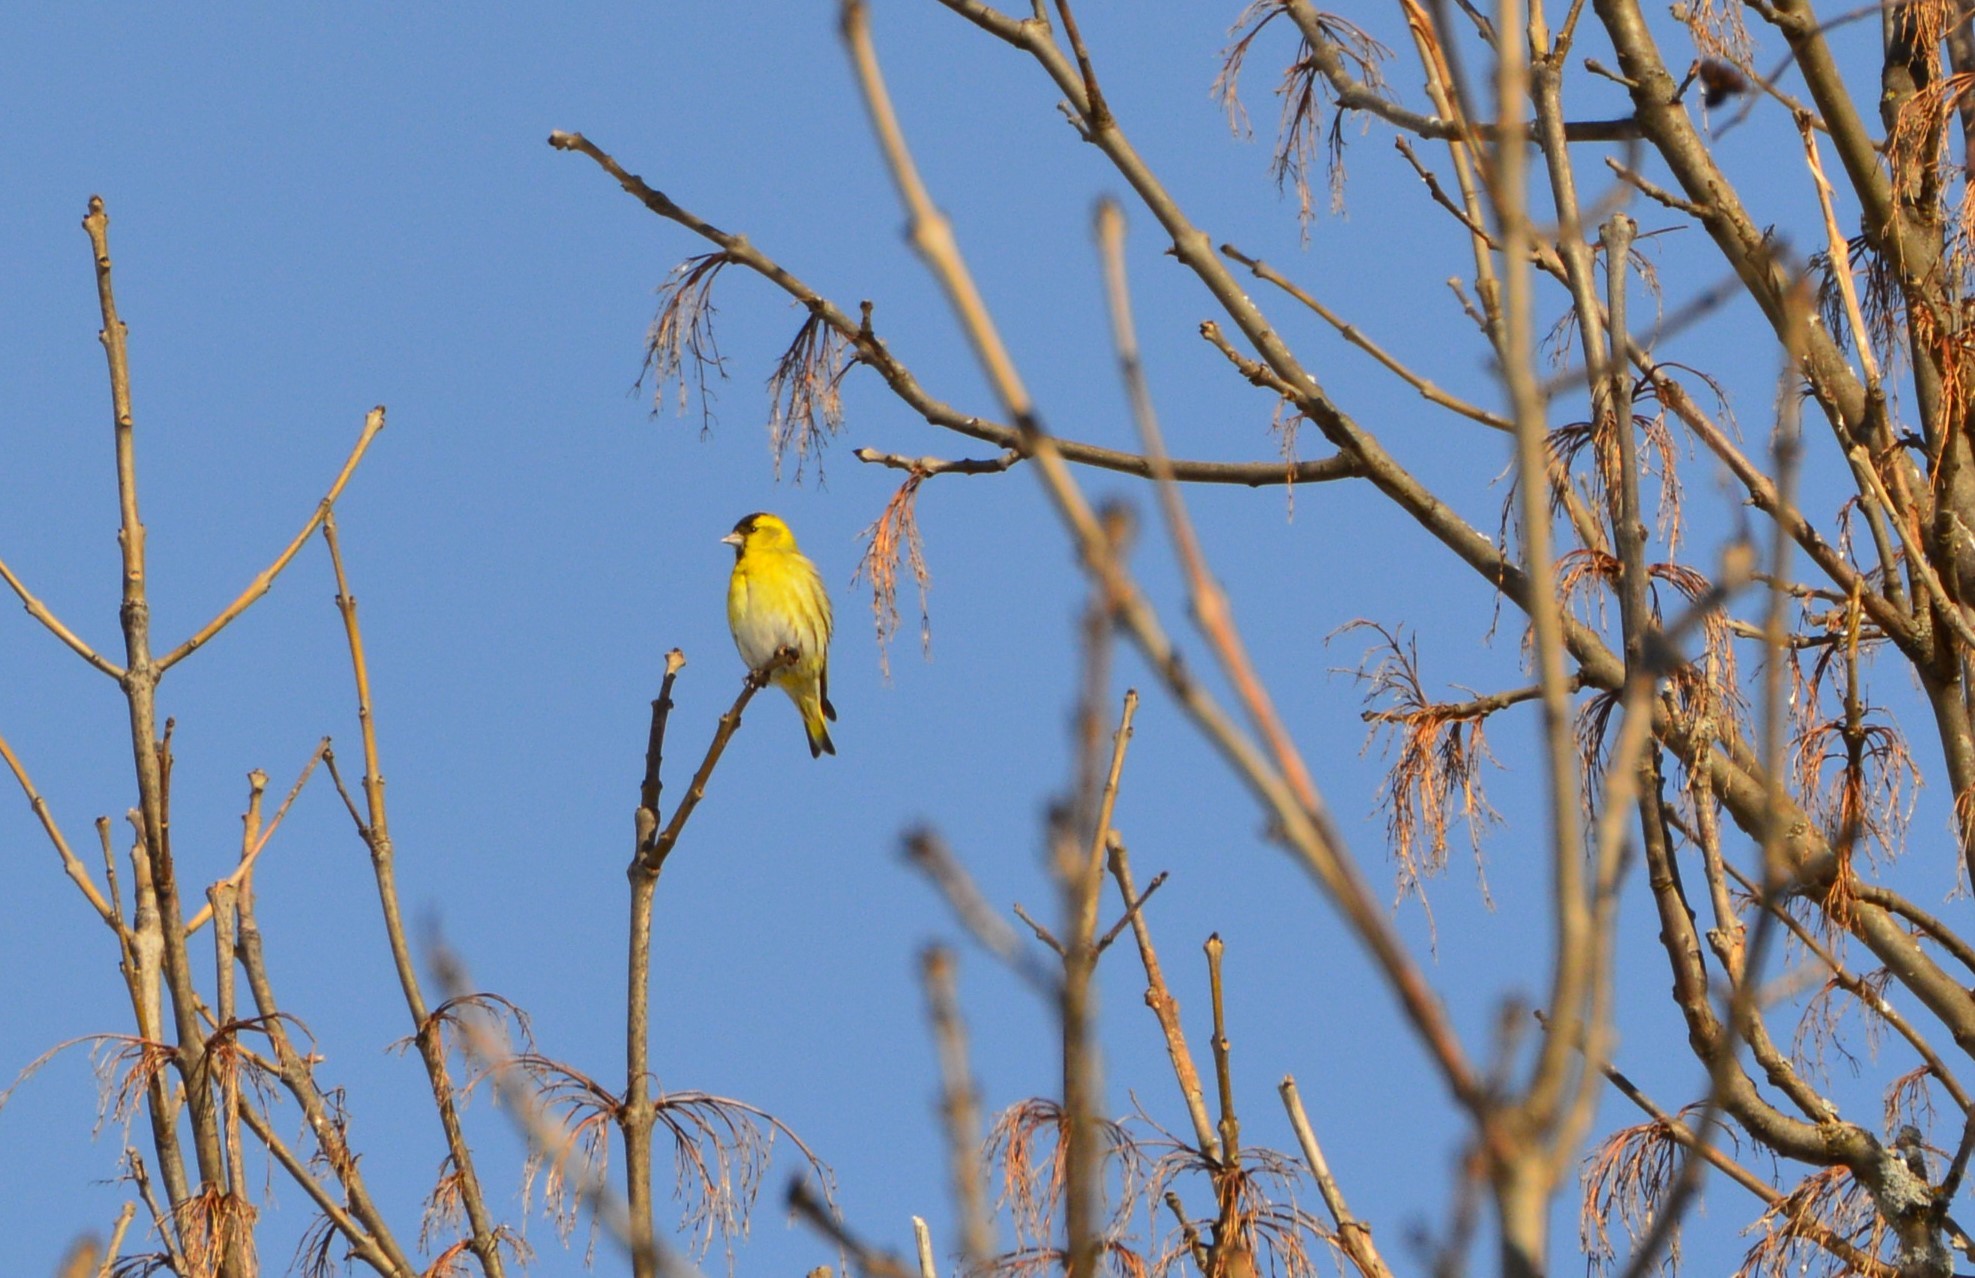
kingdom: Animalia
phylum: Chordata
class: Aves
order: Passeriformes
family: Fringillidae
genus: Spinus
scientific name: Spinus spinus
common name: Eurasian siskin
